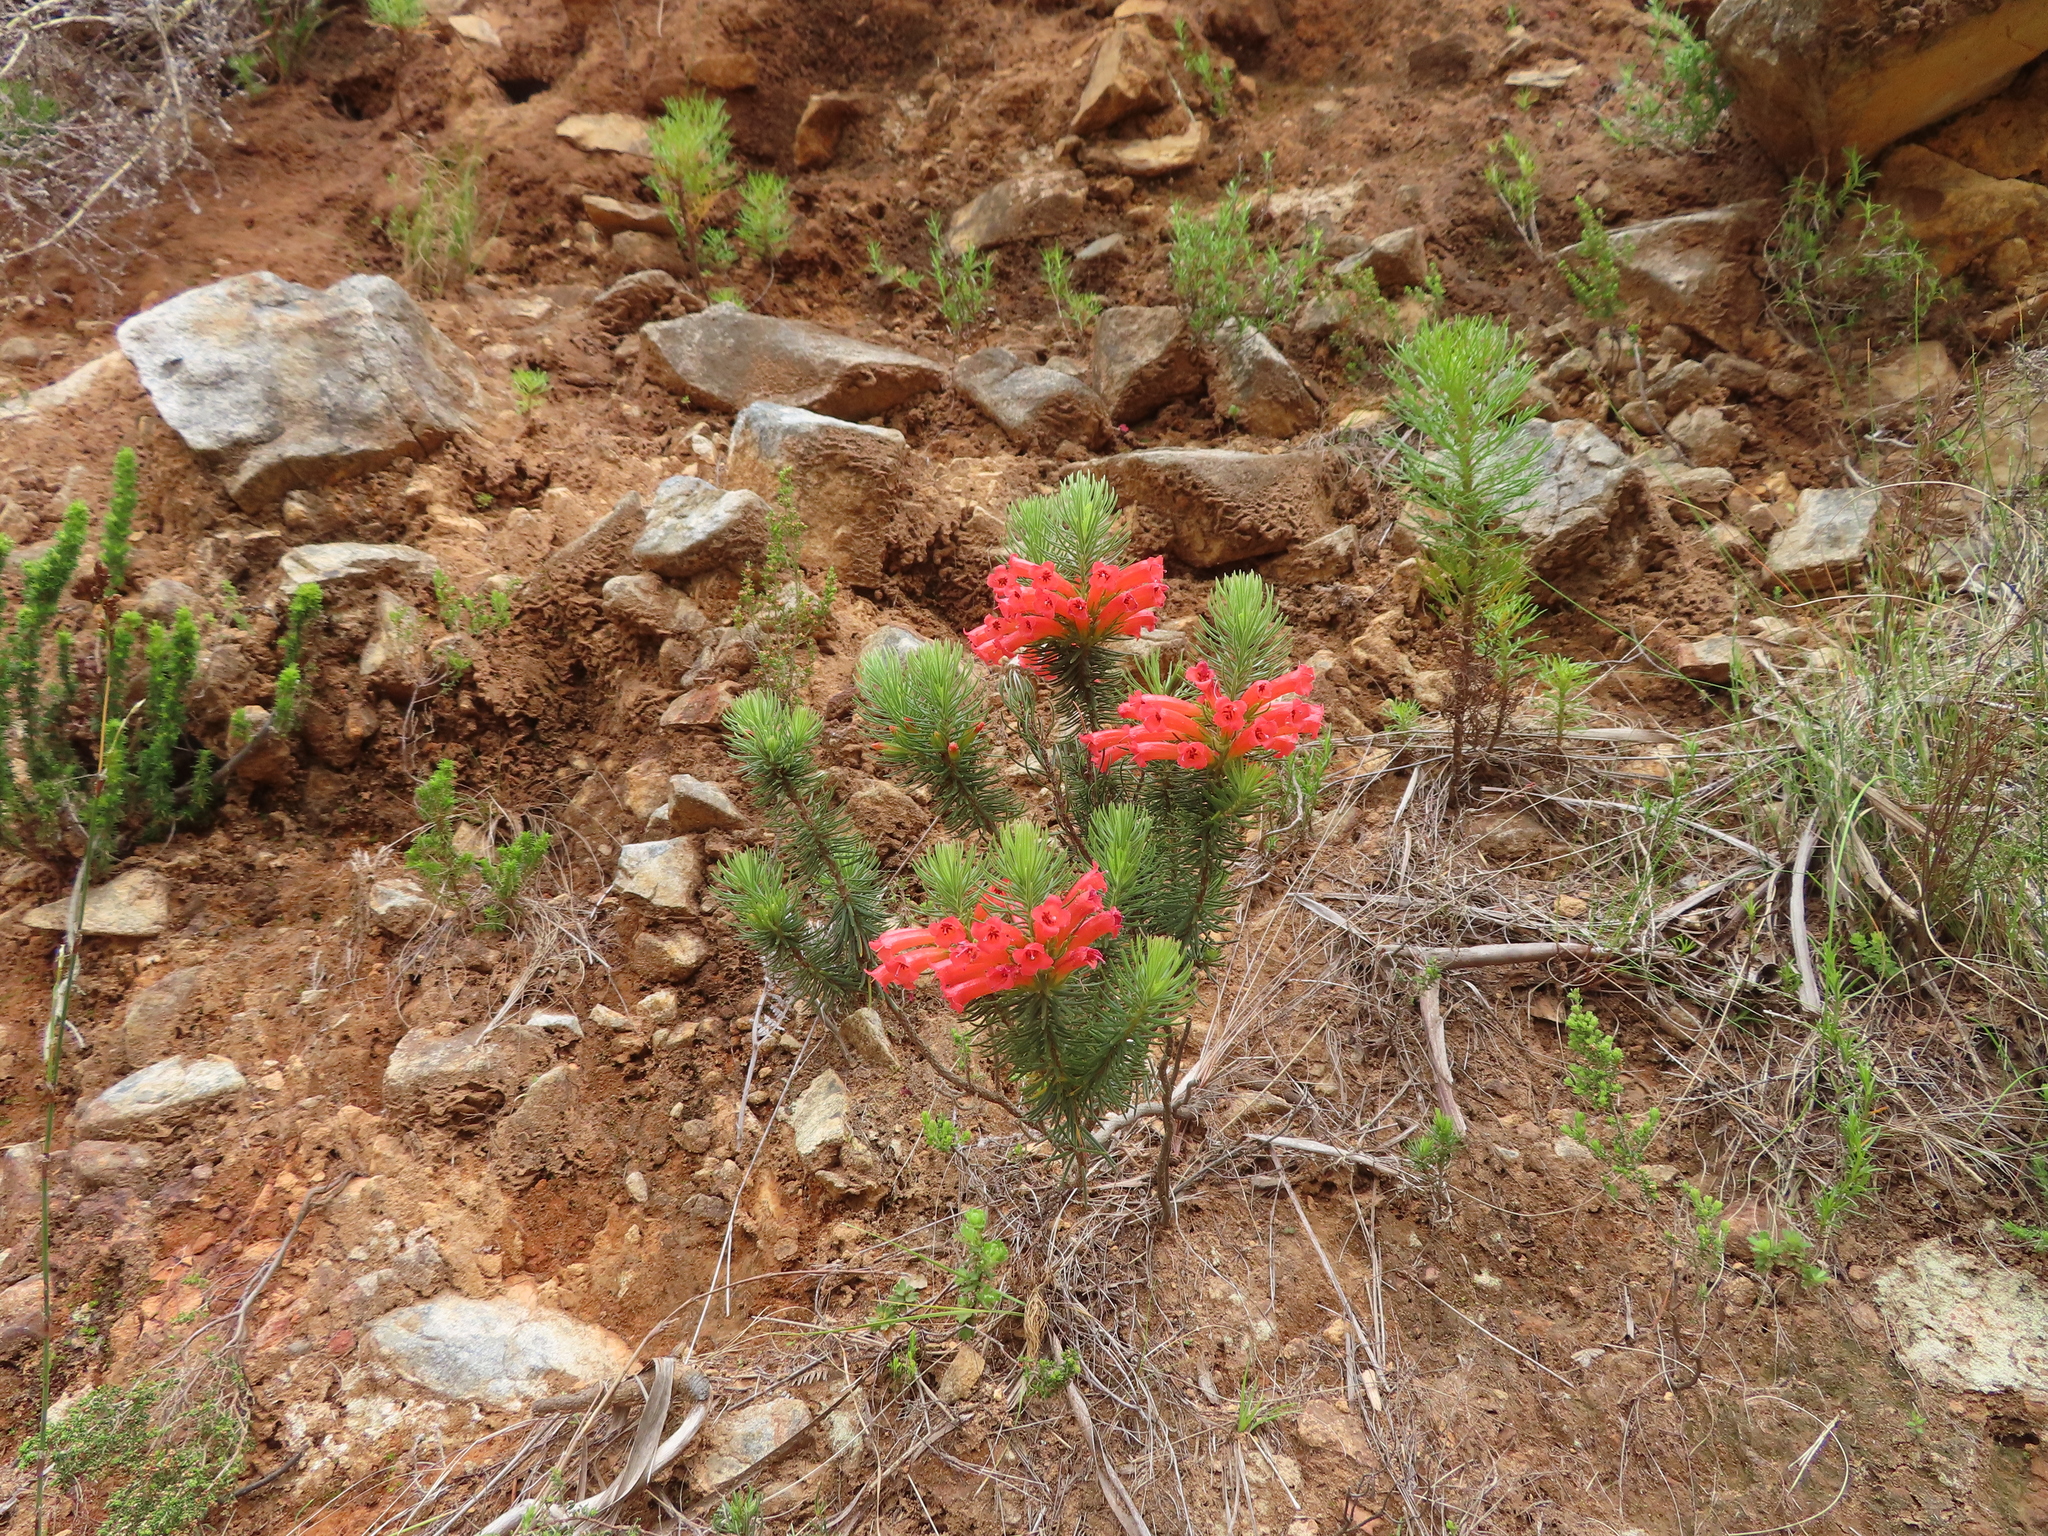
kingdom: Plantae
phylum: Tracheophyta
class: Magnoliopsida
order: Ericales
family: Ericaceae
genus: Erica
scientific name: Erica viscaria
